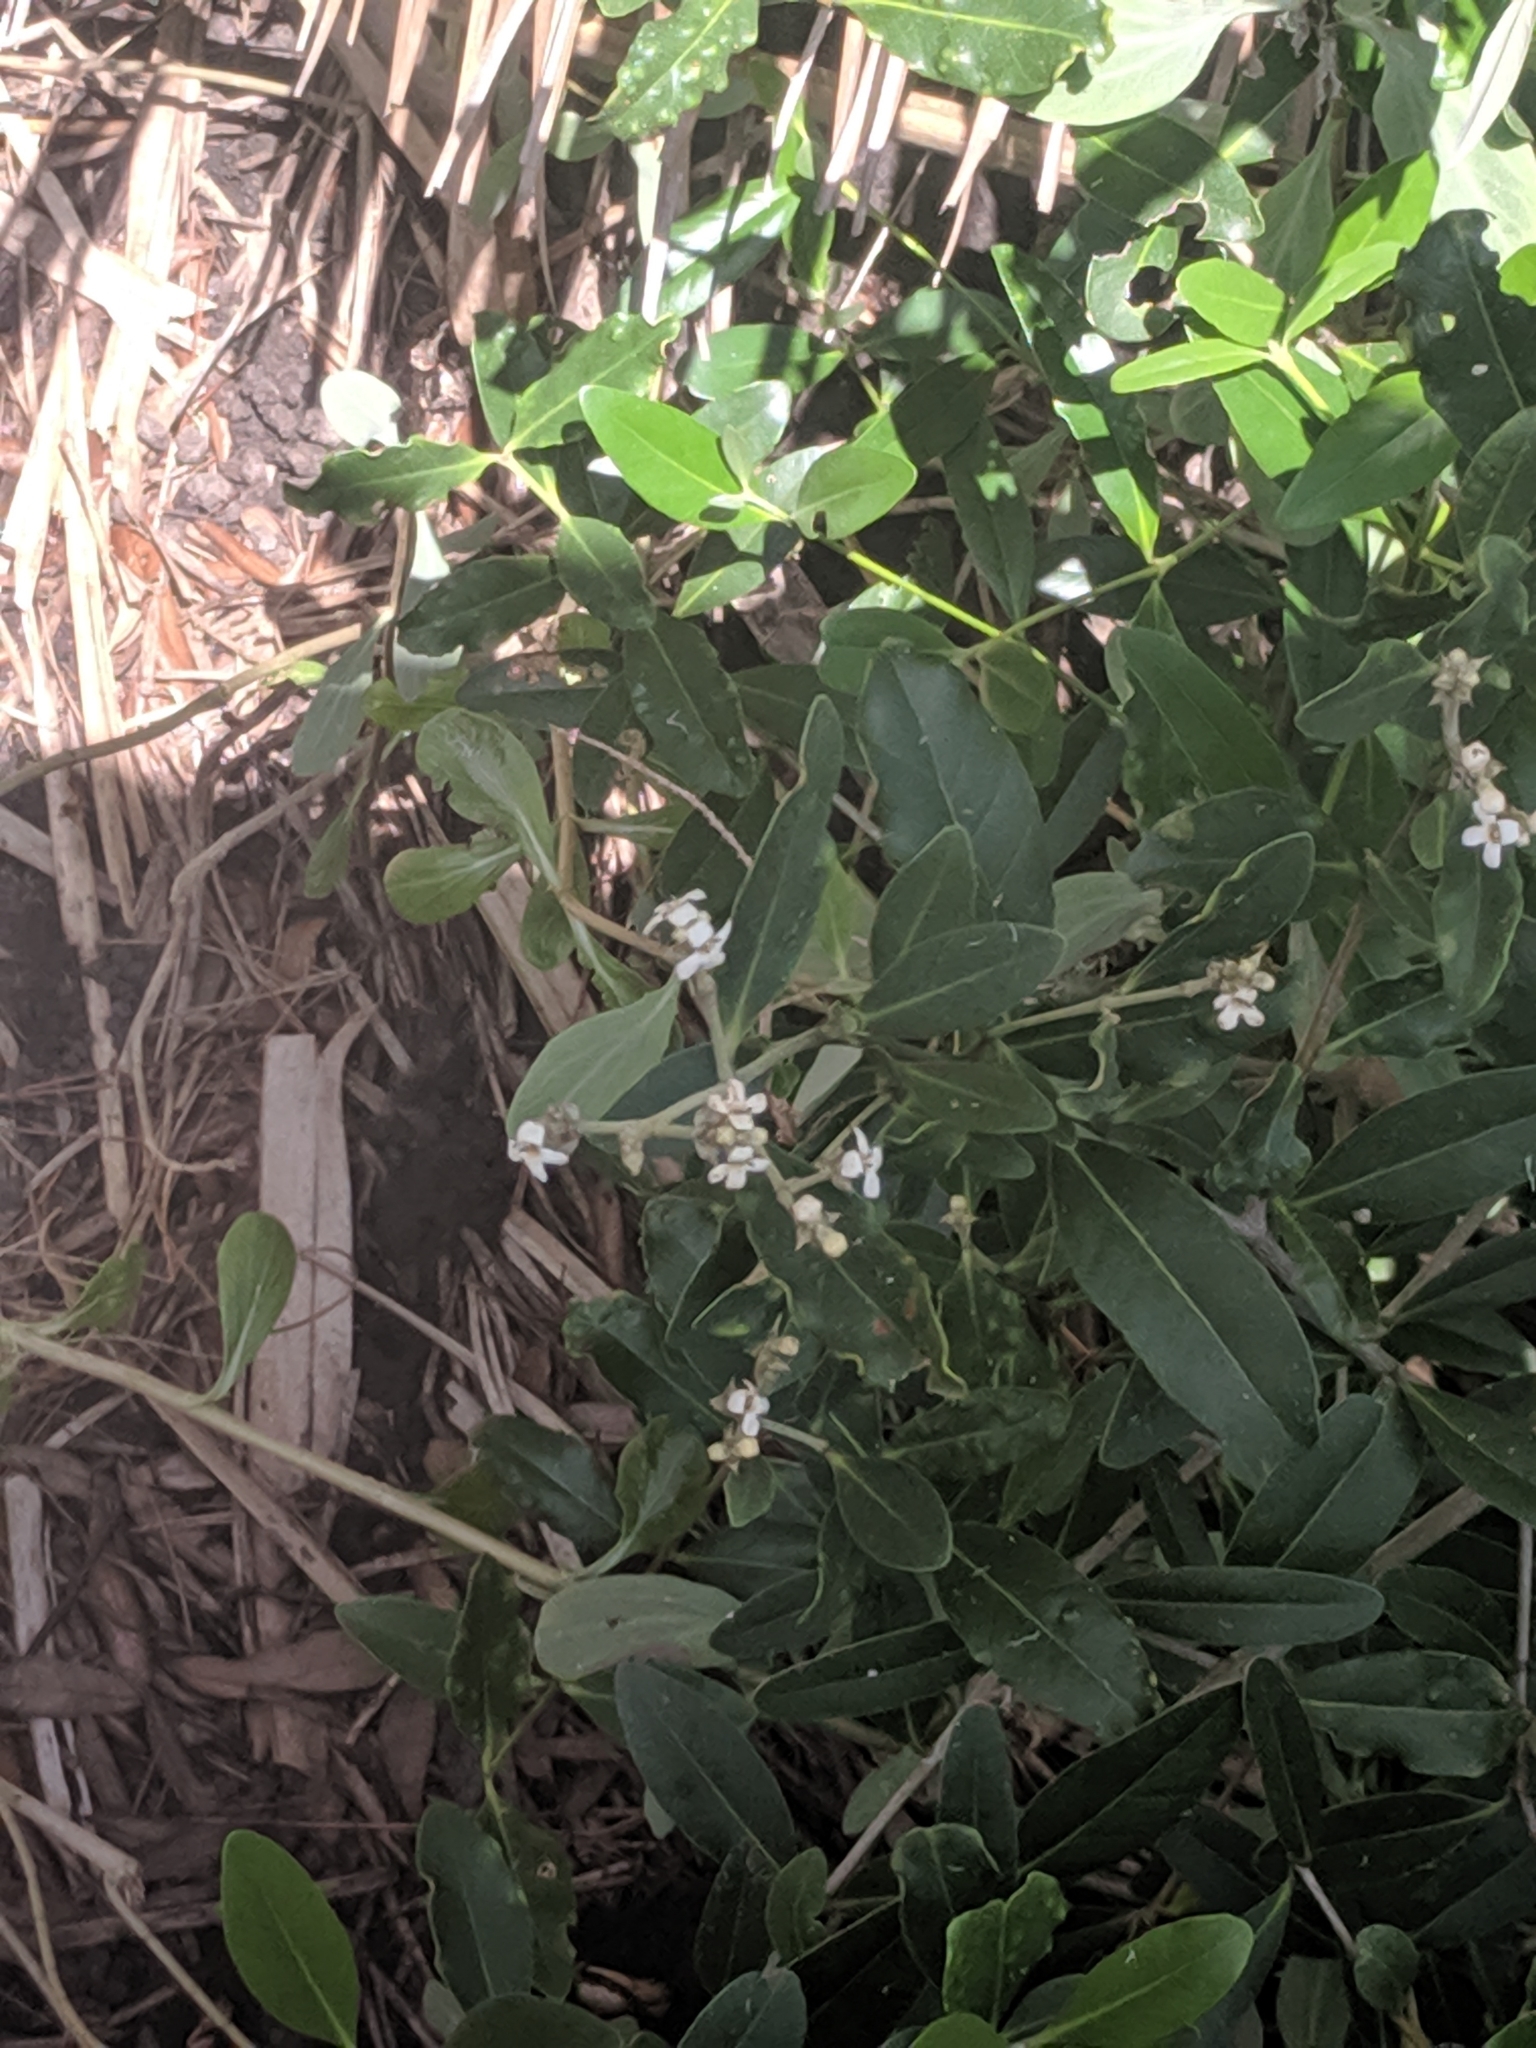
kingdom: Plantae
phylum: Tracheophyta
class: Magnoliopsida
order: Lamiales
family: Acanthaceae
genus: Avicennia
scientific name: Avicennia germinans
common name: Black mangrove
